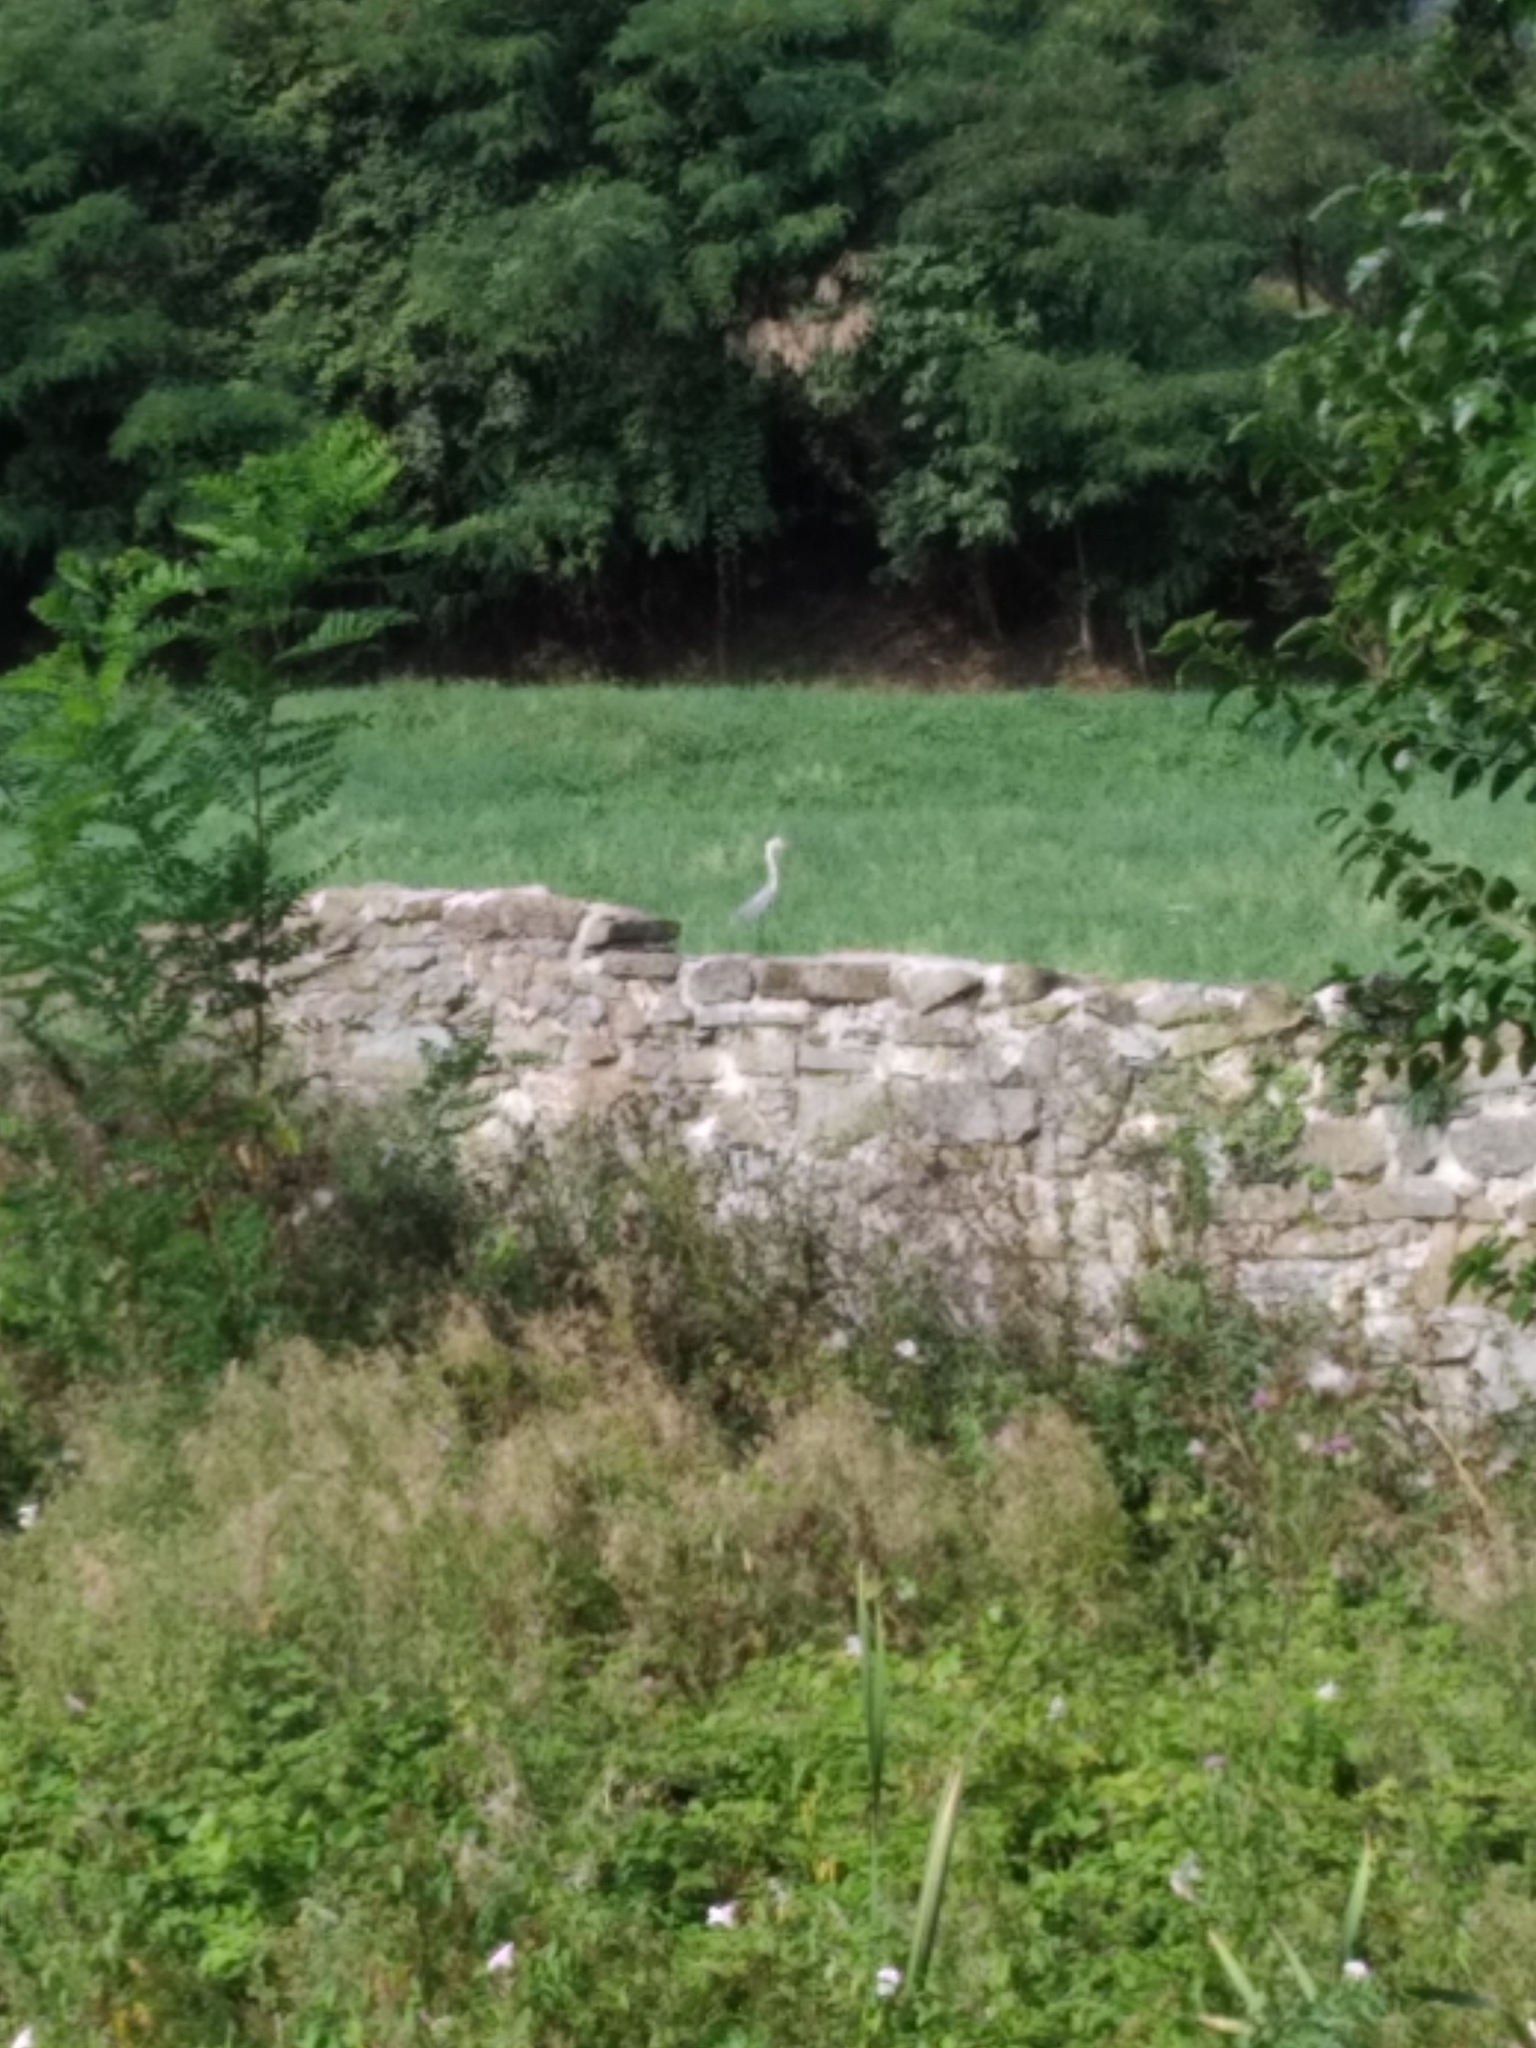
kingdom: Animalia
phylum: Chordata
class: Aves
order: Pelecaniformes
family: Ardeidae
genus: Ardea
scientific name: Ardea cinerea
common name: Grey heron
